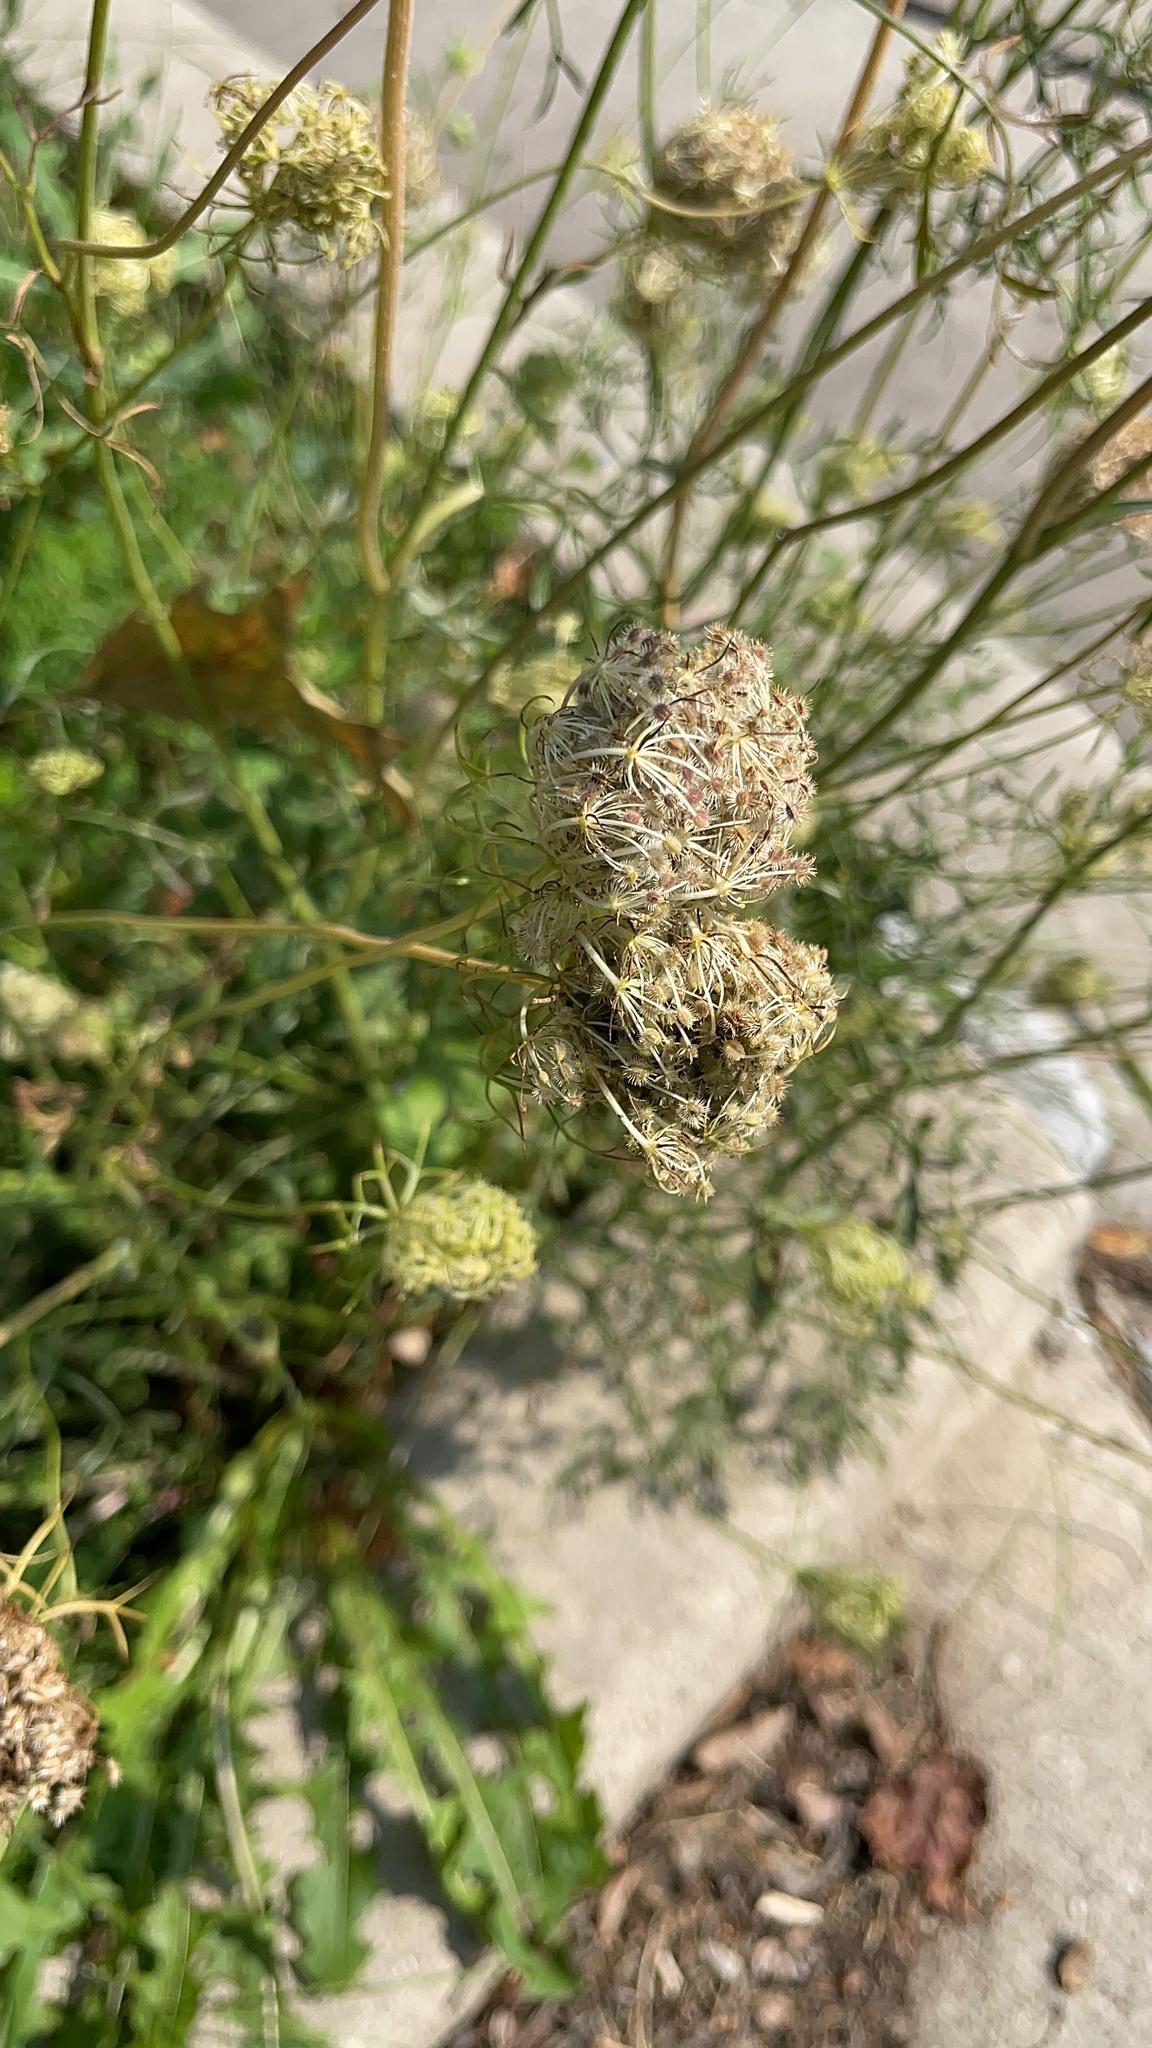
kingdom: Plantae
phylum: Tracheophyta
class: Magnoliopsida
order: Apiales
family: Apiaceae
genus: Daucus
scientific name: Daucus carota
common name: Wild carrot
